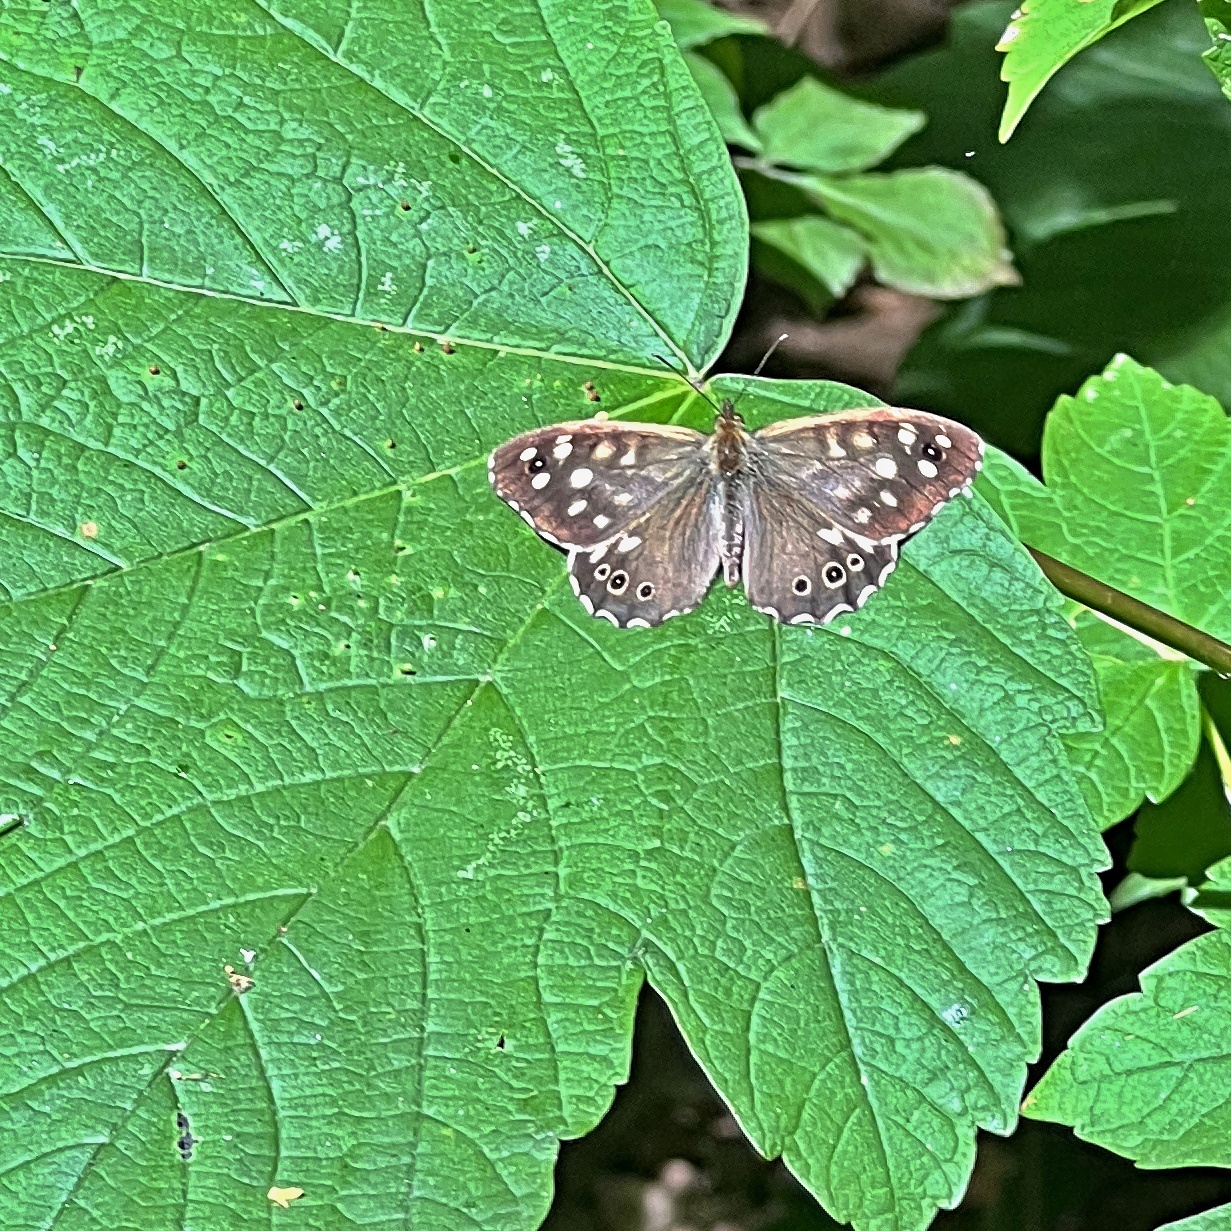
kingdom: Animalia
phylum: Arthropoda
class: Insecta
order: Lepidoptera
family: Nymphalidae
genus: Pararge
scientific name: Pararge aegeria
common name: Speckled wood
